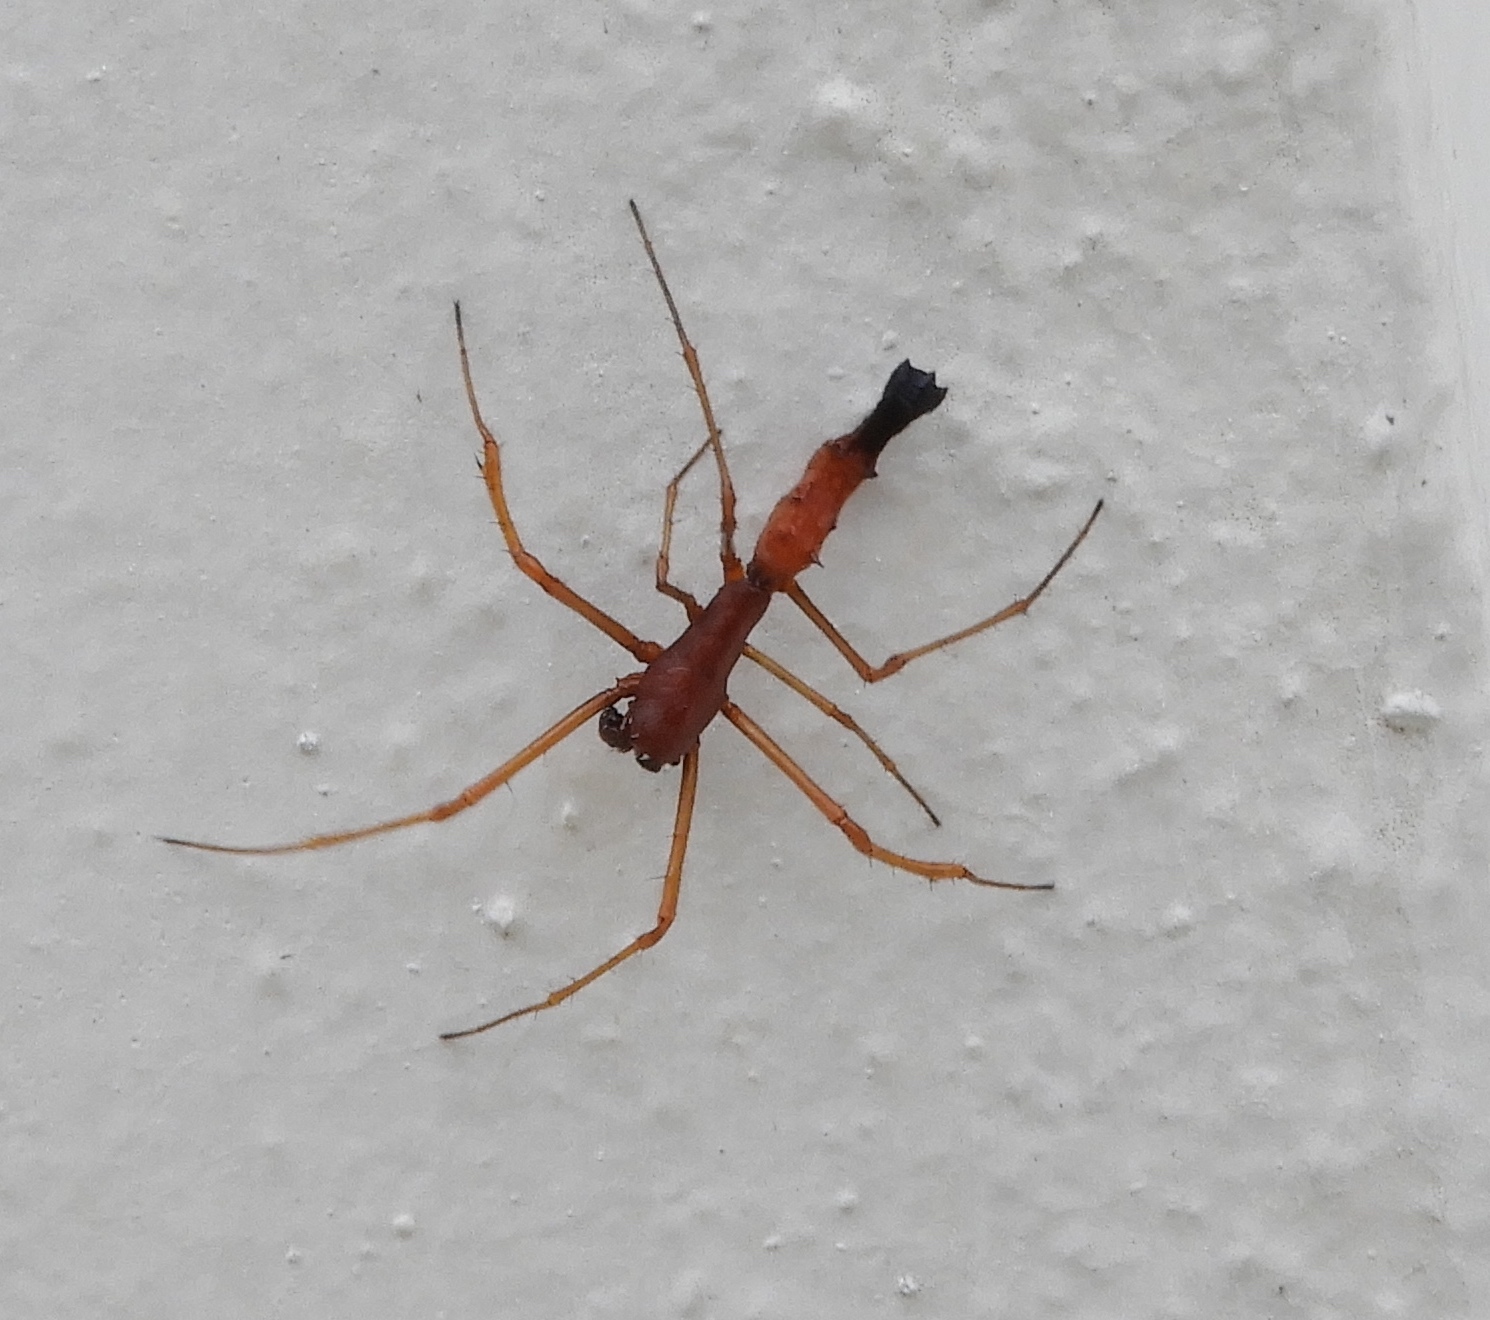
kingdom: Animalia
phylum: Arthropoda
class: Arachnida
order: Araneae
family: Araneidae
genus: Edricus
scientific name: Edricus productus
